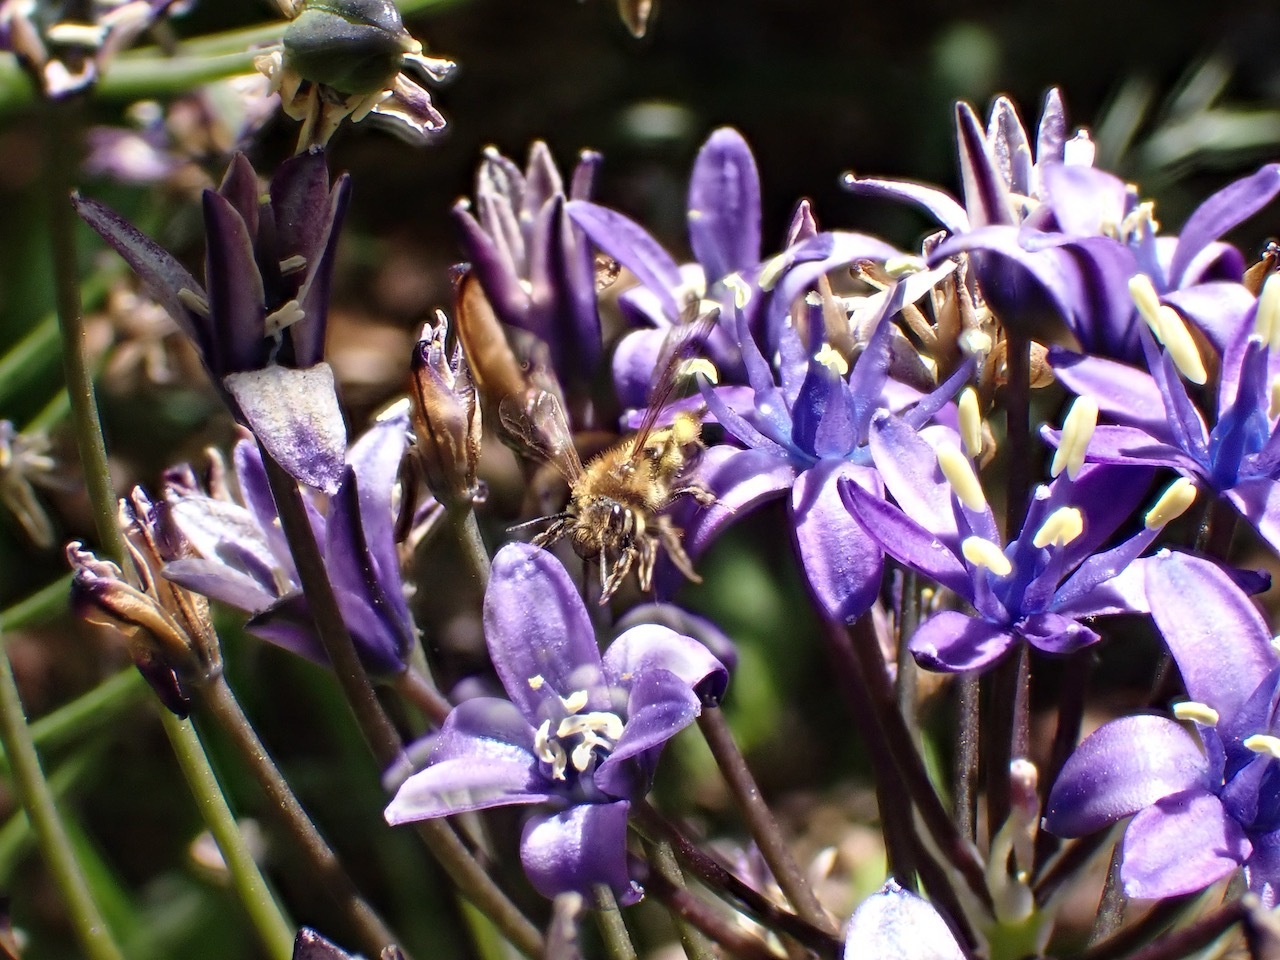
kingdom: Animalia
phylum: Arthropoda
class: Insecta
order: Hymenoptera
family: Andrenidae
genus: Andrena
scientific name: Andrena auricoma
